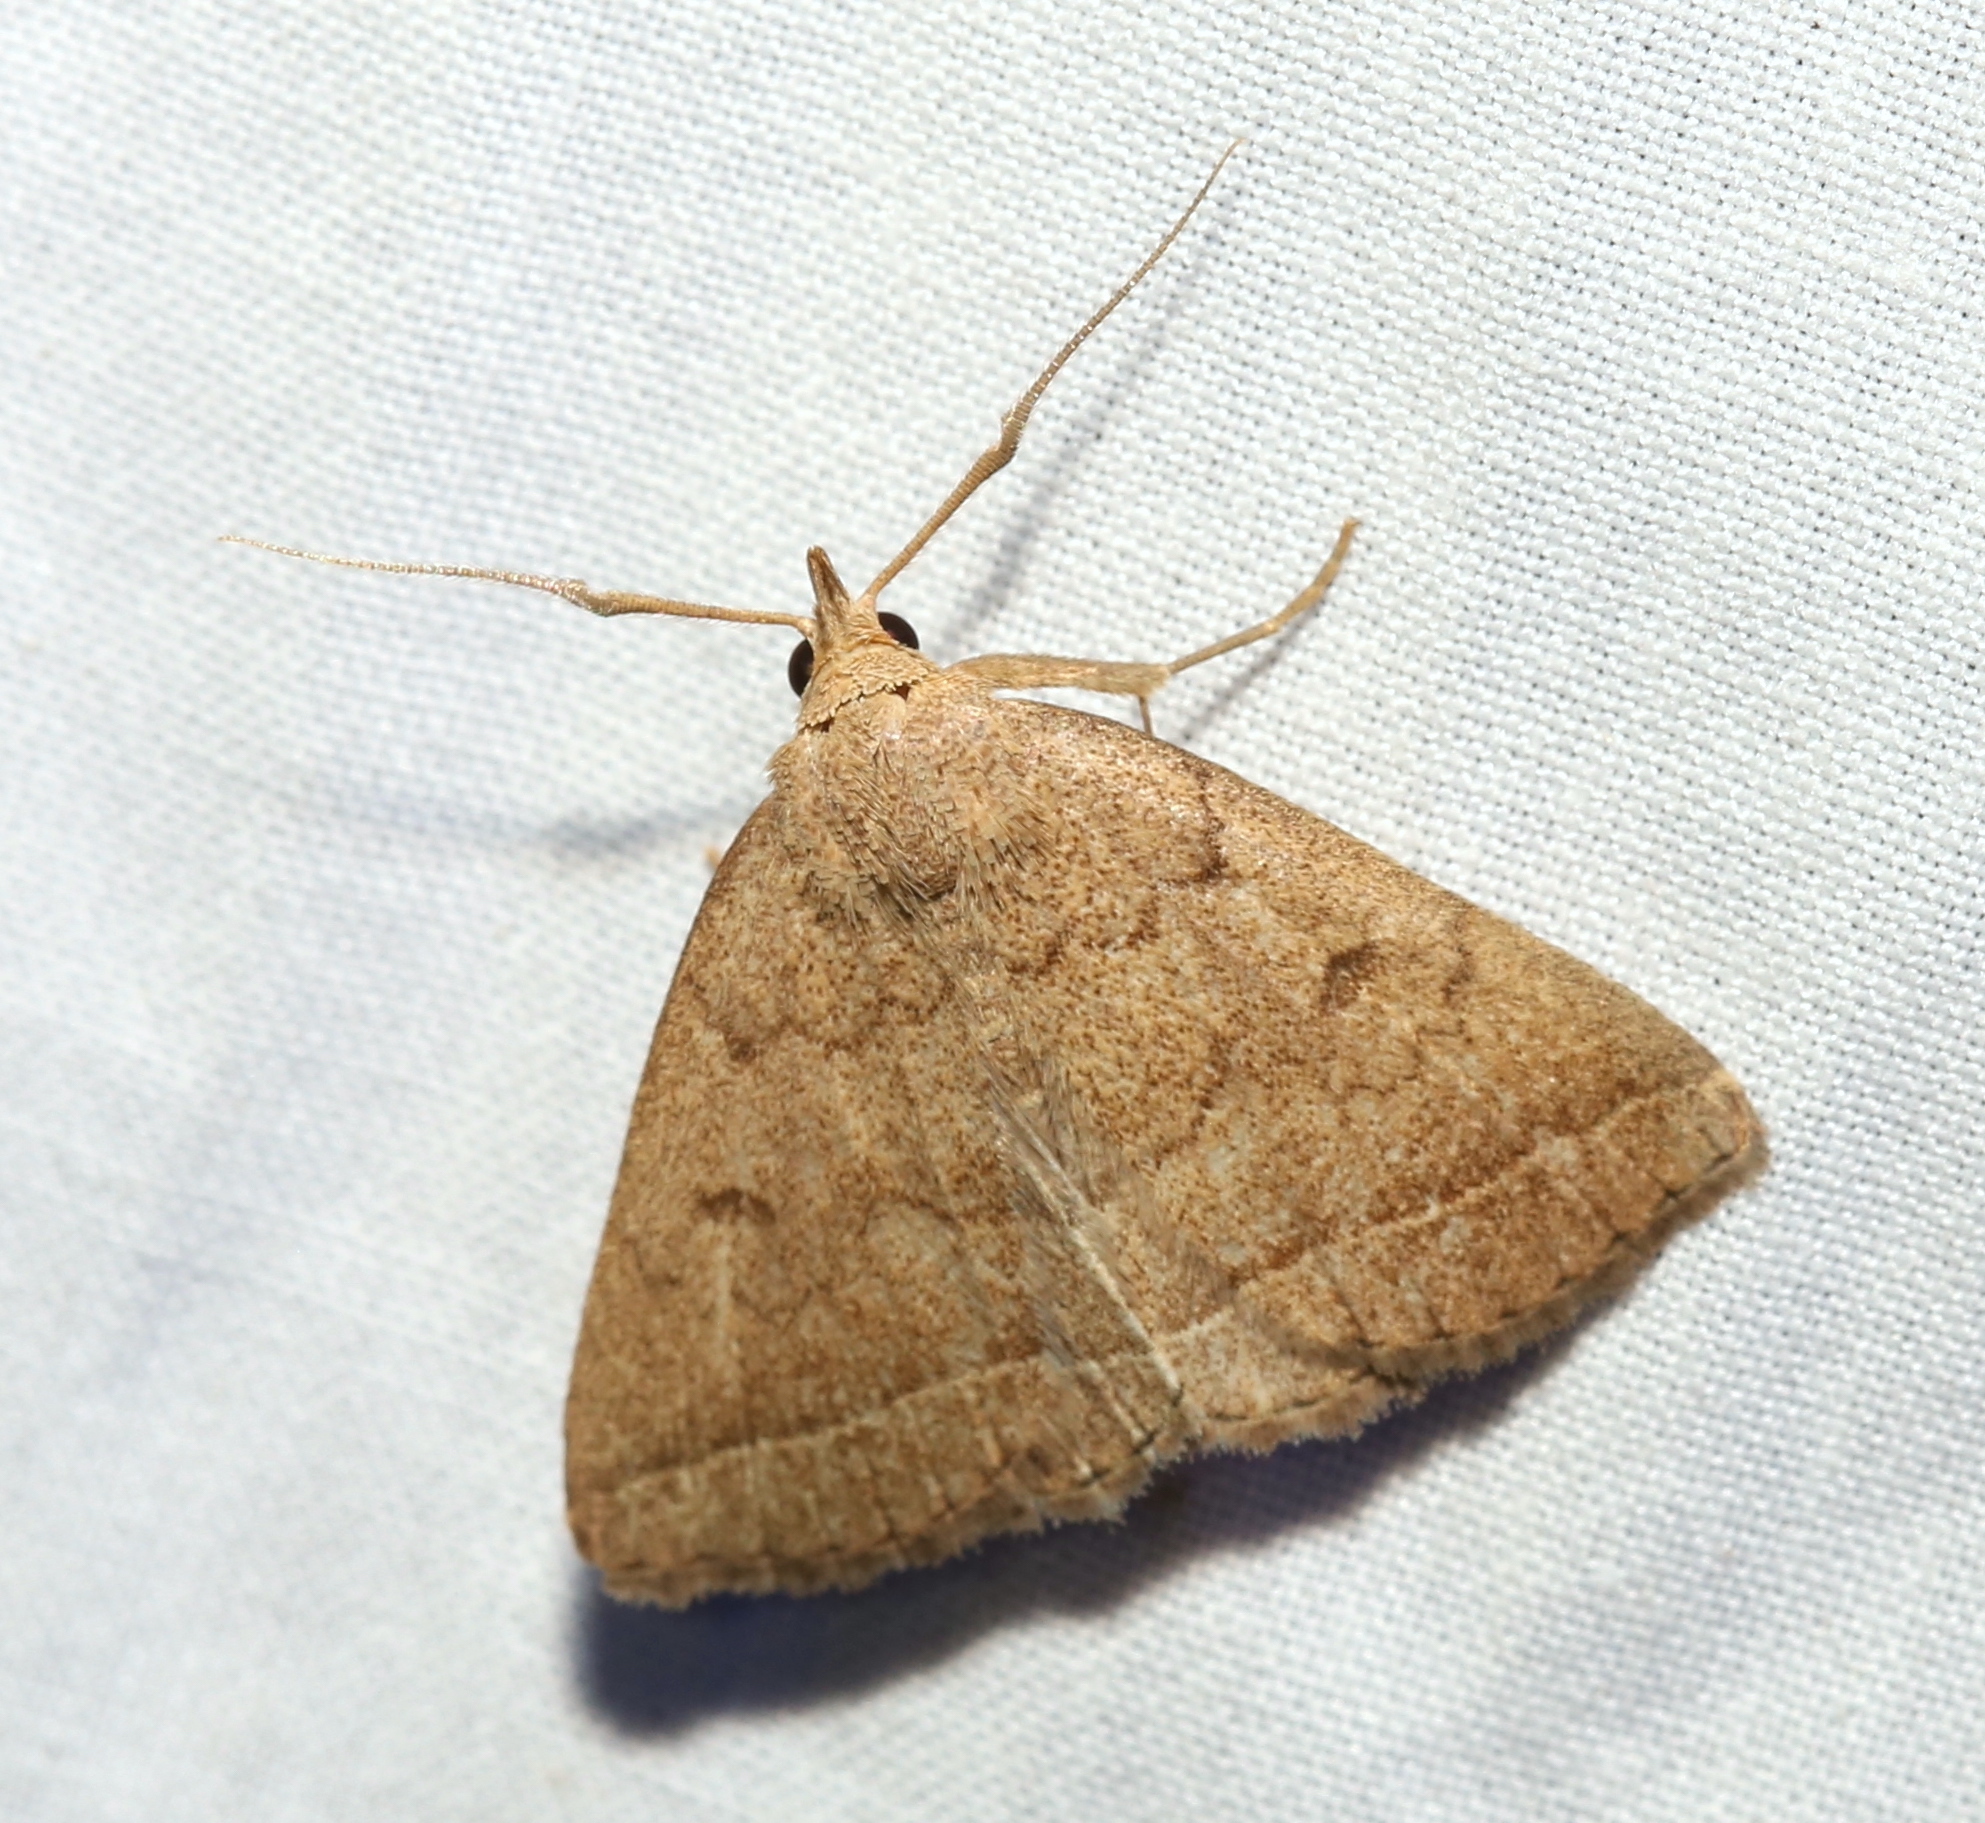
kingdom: Animalia
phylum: Arthropoda
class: Insecta
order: Lepidoptera
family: Erebidae
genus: Zanclognatha
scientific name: Zanclognatha jacchusalis
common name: Yellowish zanclognatha
